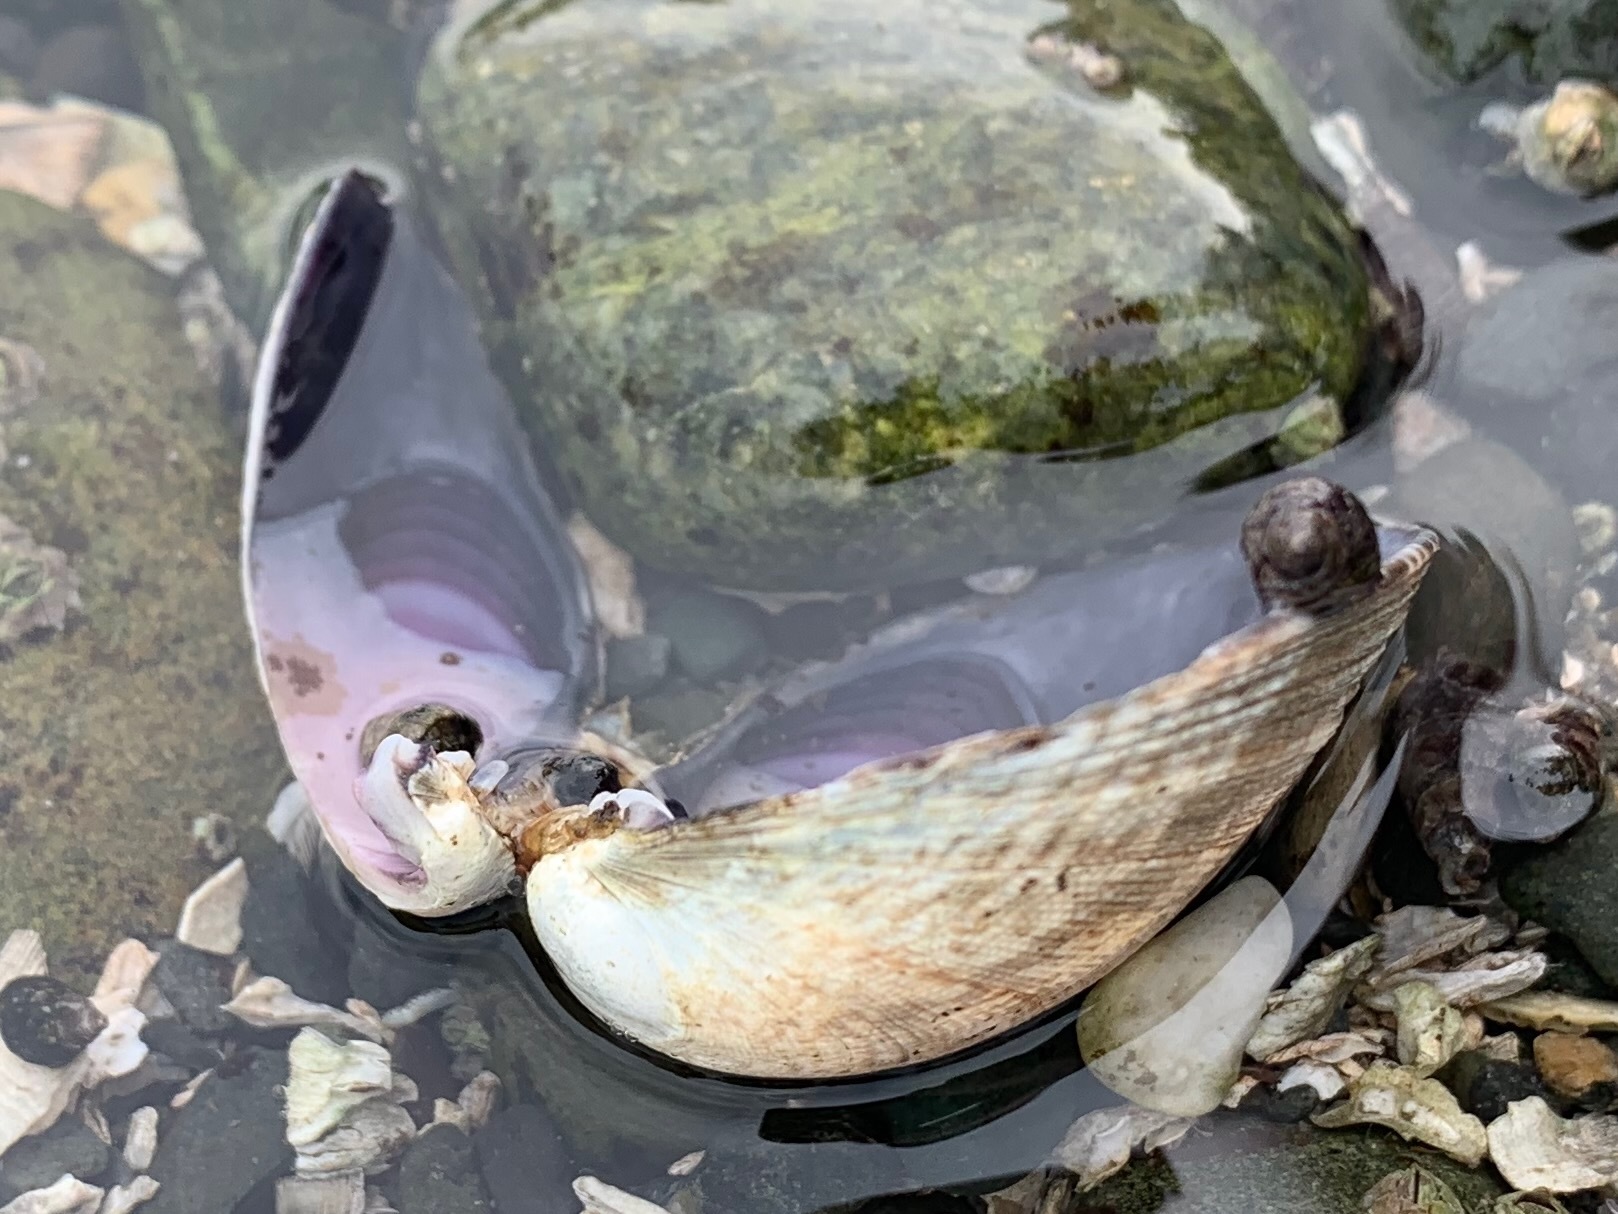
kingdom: Animalia
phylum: Mollusca
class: Bivalvia
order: Venerida
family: Veneridae
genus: Ruditapes
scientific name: Ruditapes philippinarum
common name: Manila clam
